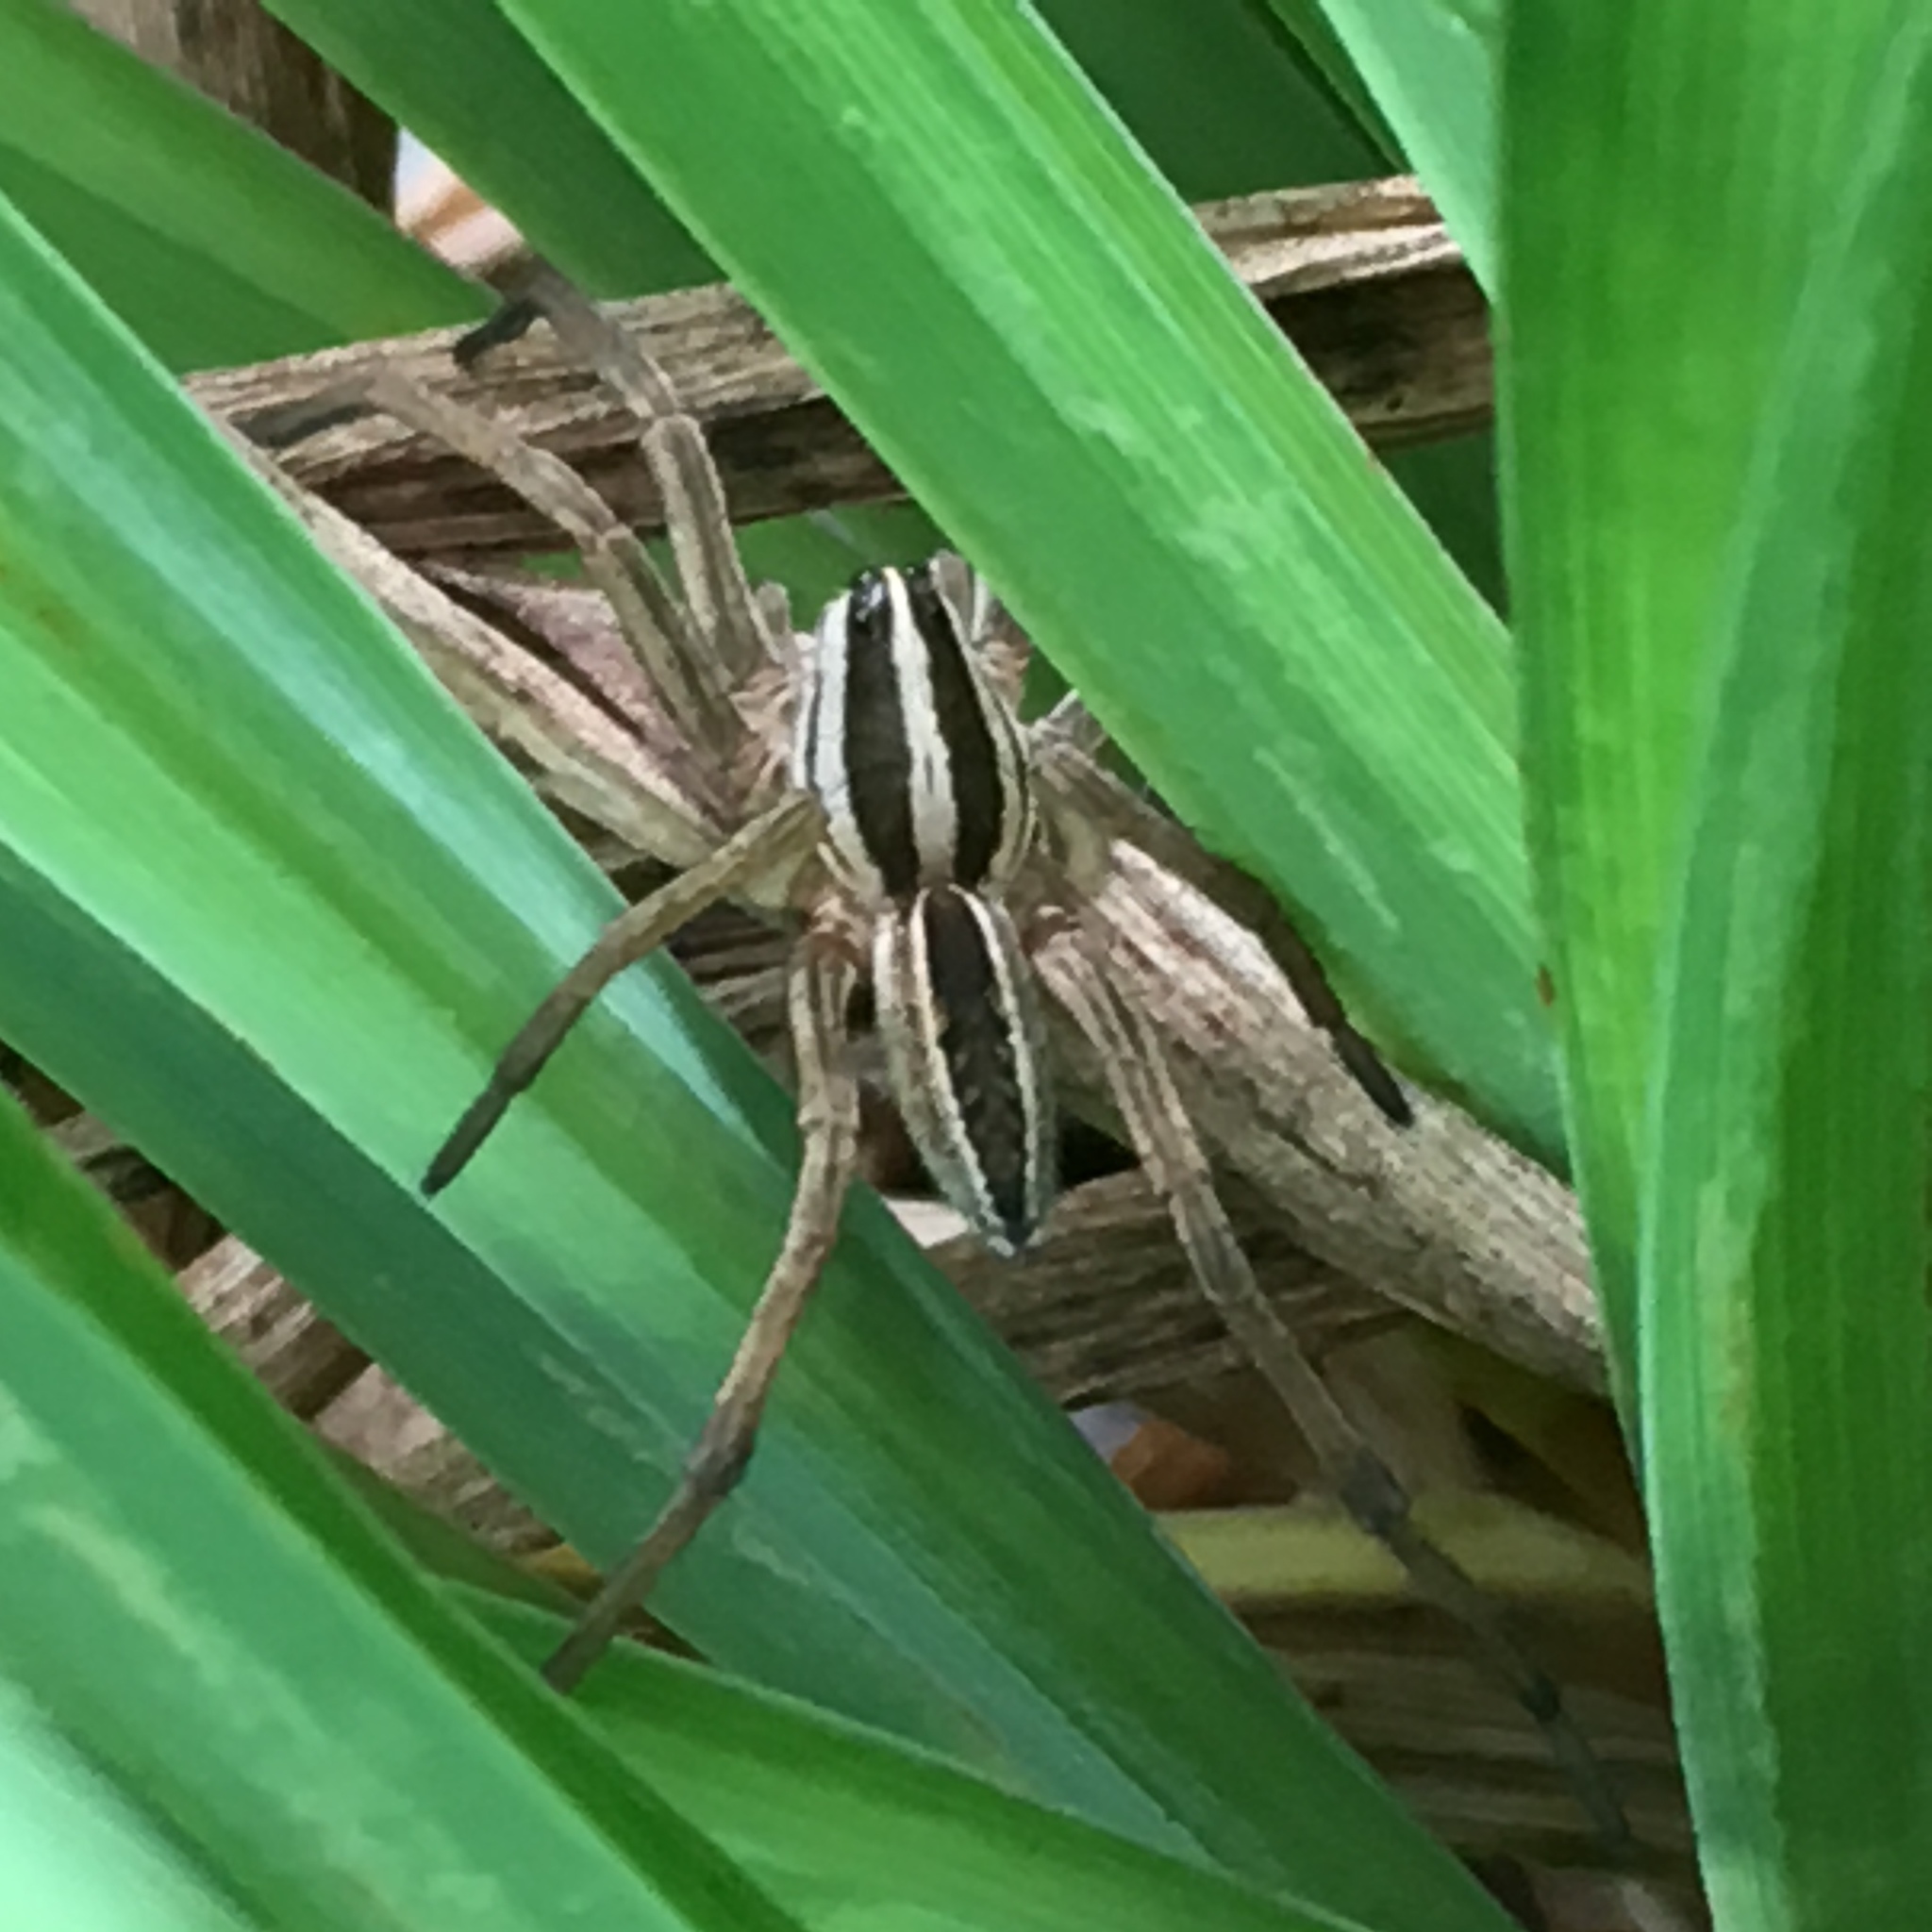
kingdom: Animalia
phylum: Arthropoda
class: Arachnida
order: Araneae
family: Lycosidae
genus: Rabidosa
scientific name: Rabidosa rabida
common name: Rabid wolf spider
